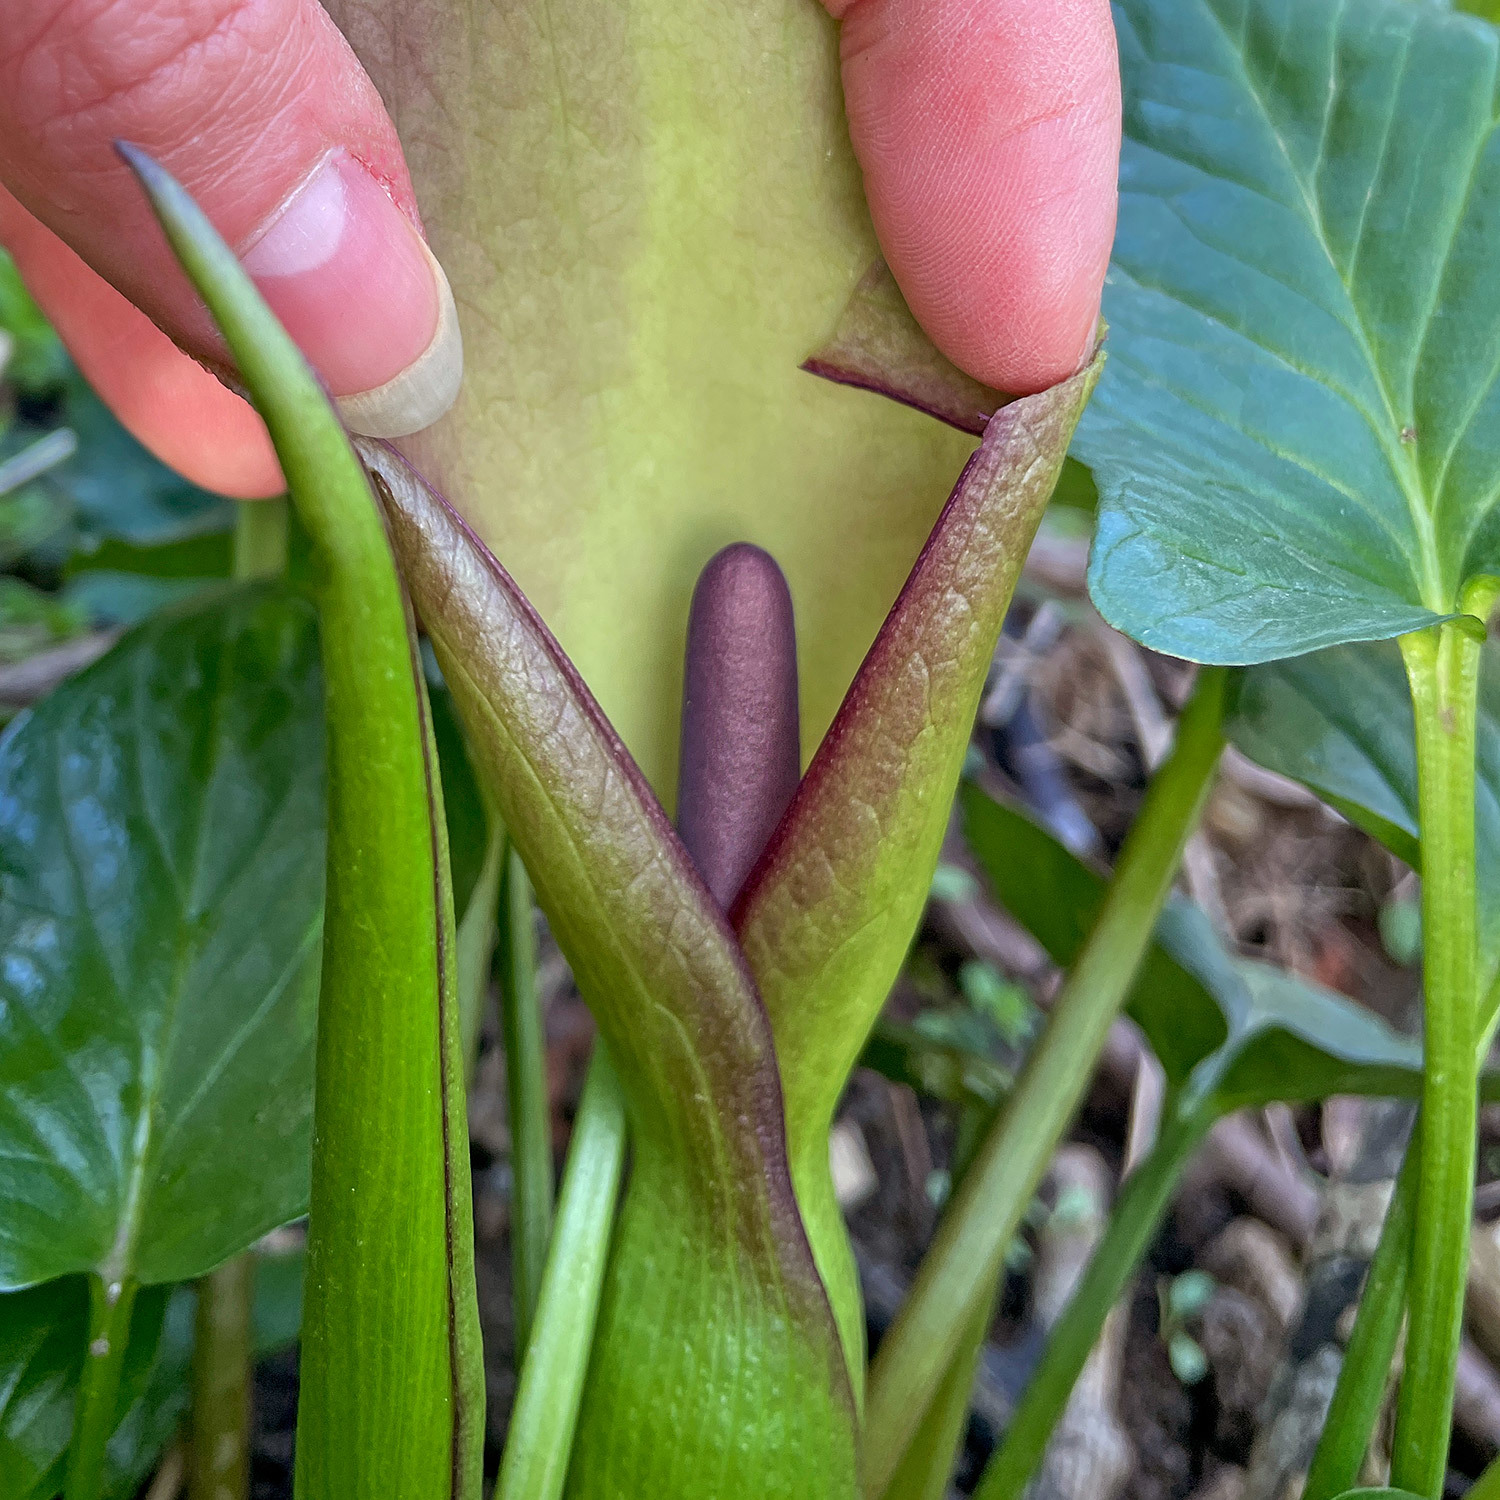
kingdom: Plantae
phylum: Tracheophyta
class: Liliopsida
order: Alismatales
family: Araceae
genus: Arum
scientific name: Arum maculatum
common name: Lords-and-ladies
